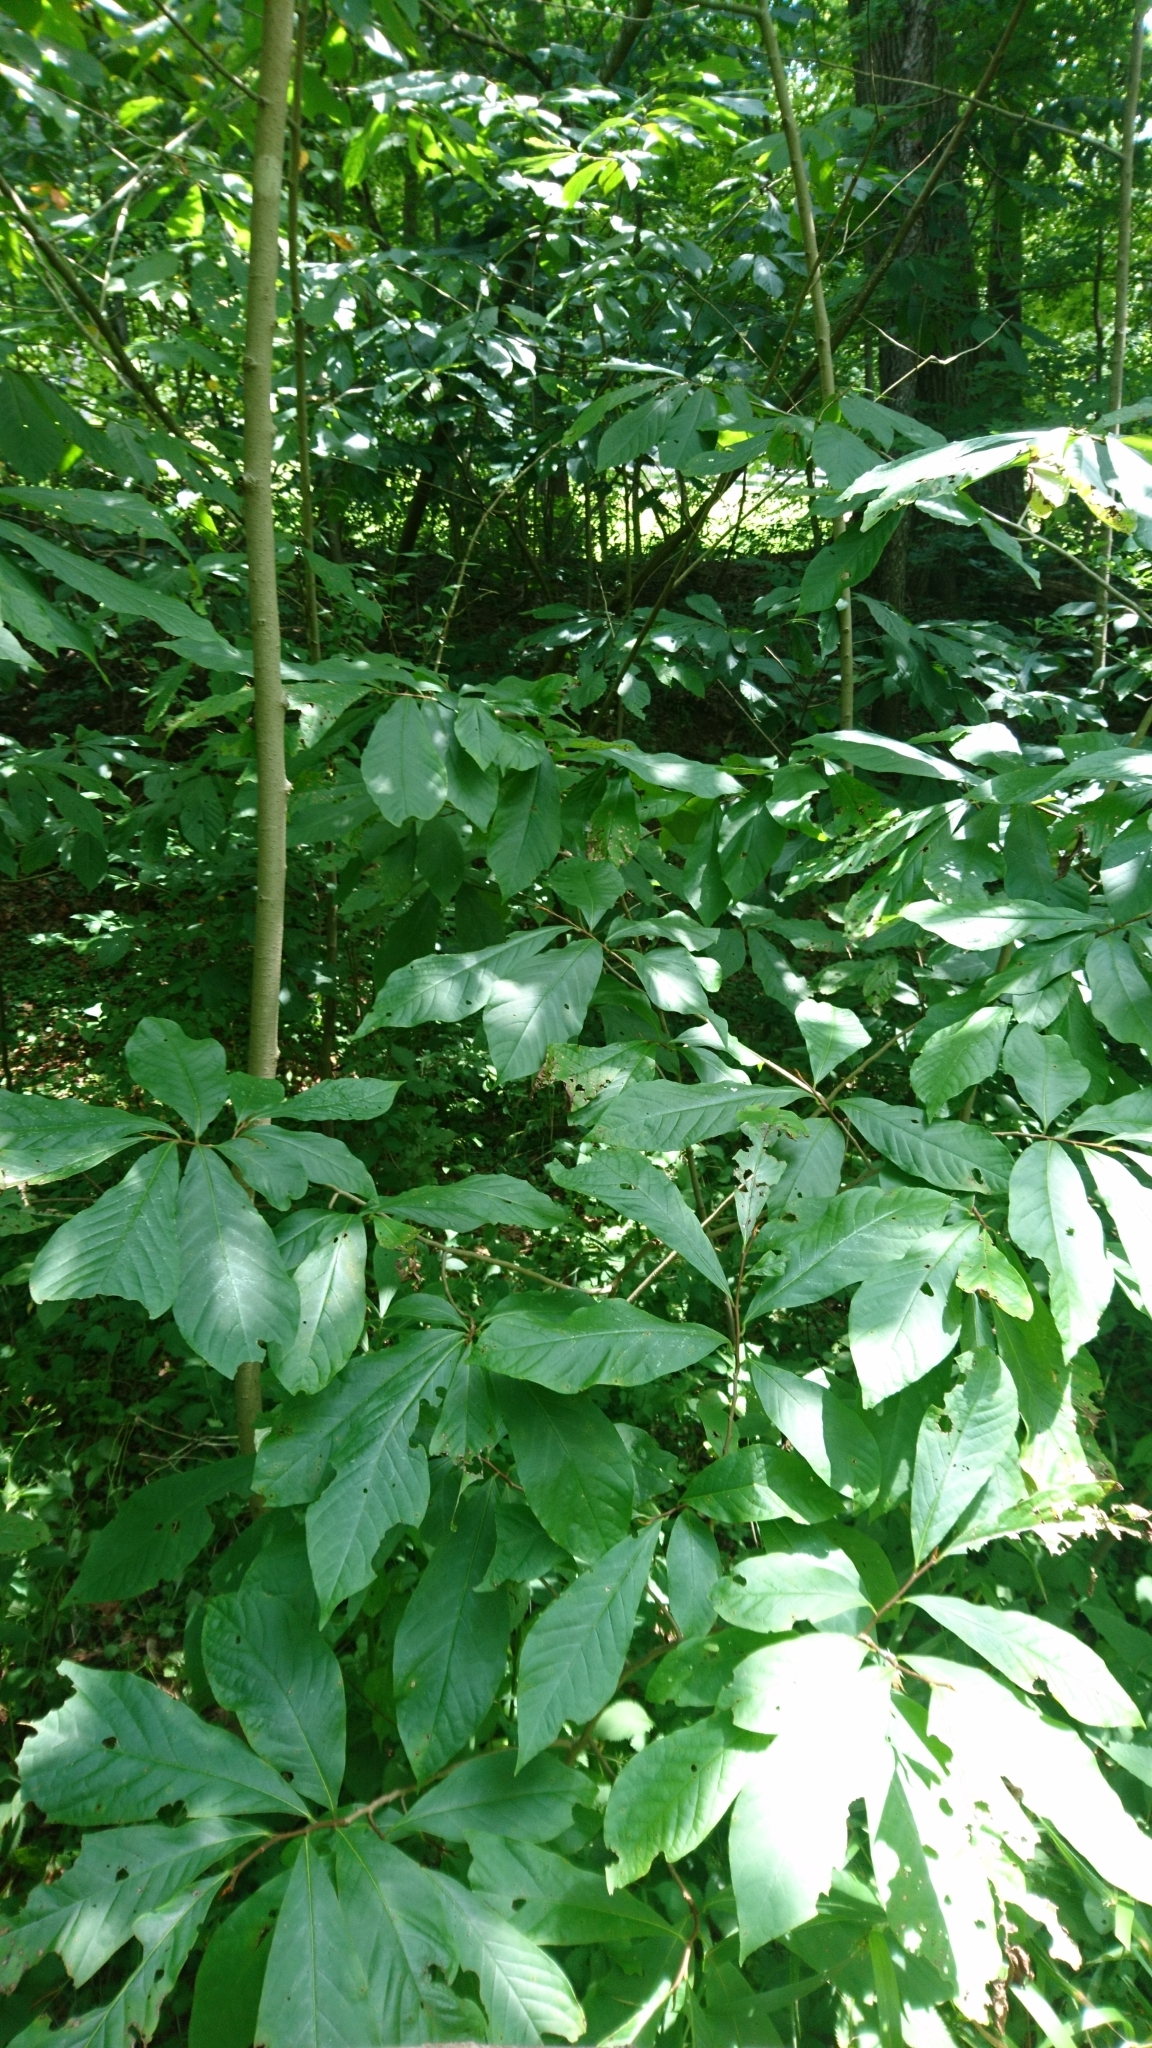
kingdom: Plantae
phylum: Tracheophyta
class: Magnoliopsida
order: Magnoliales
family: Annonaceae
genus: Asimina
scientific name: Asimina triloba
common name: Dog-banana
